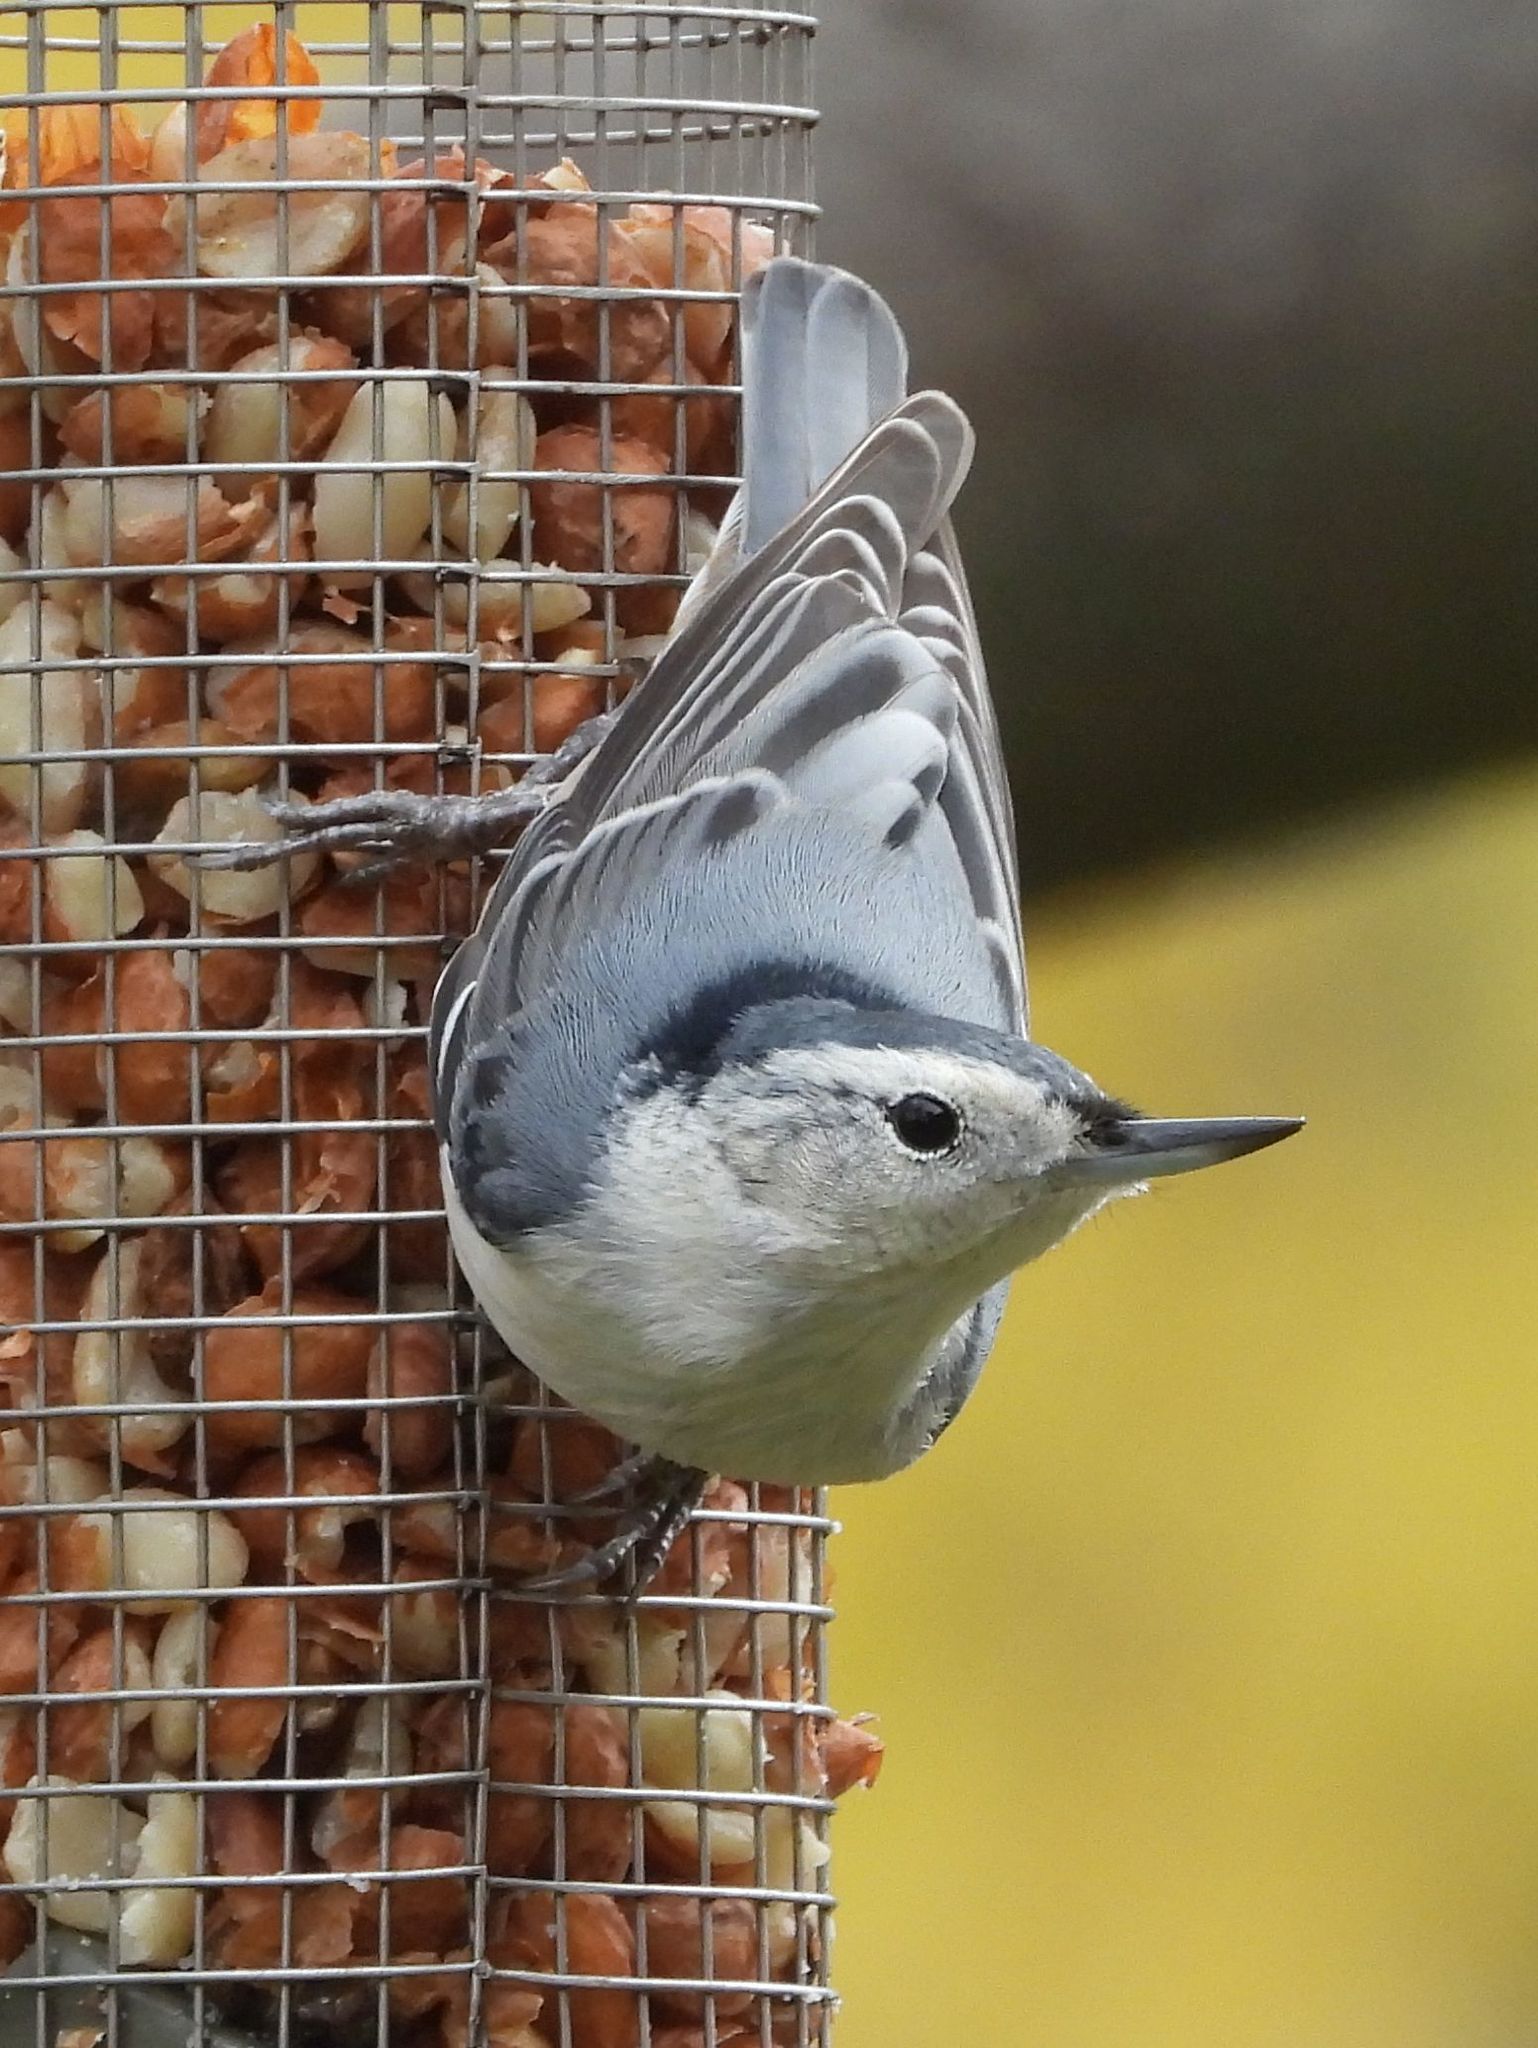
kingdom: Animalia
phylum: Chordata
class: Aves
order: Passeriformes
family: Sittidae
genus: Sitta
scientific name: Sitta carolinensis
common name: White-breasted nuthatch
